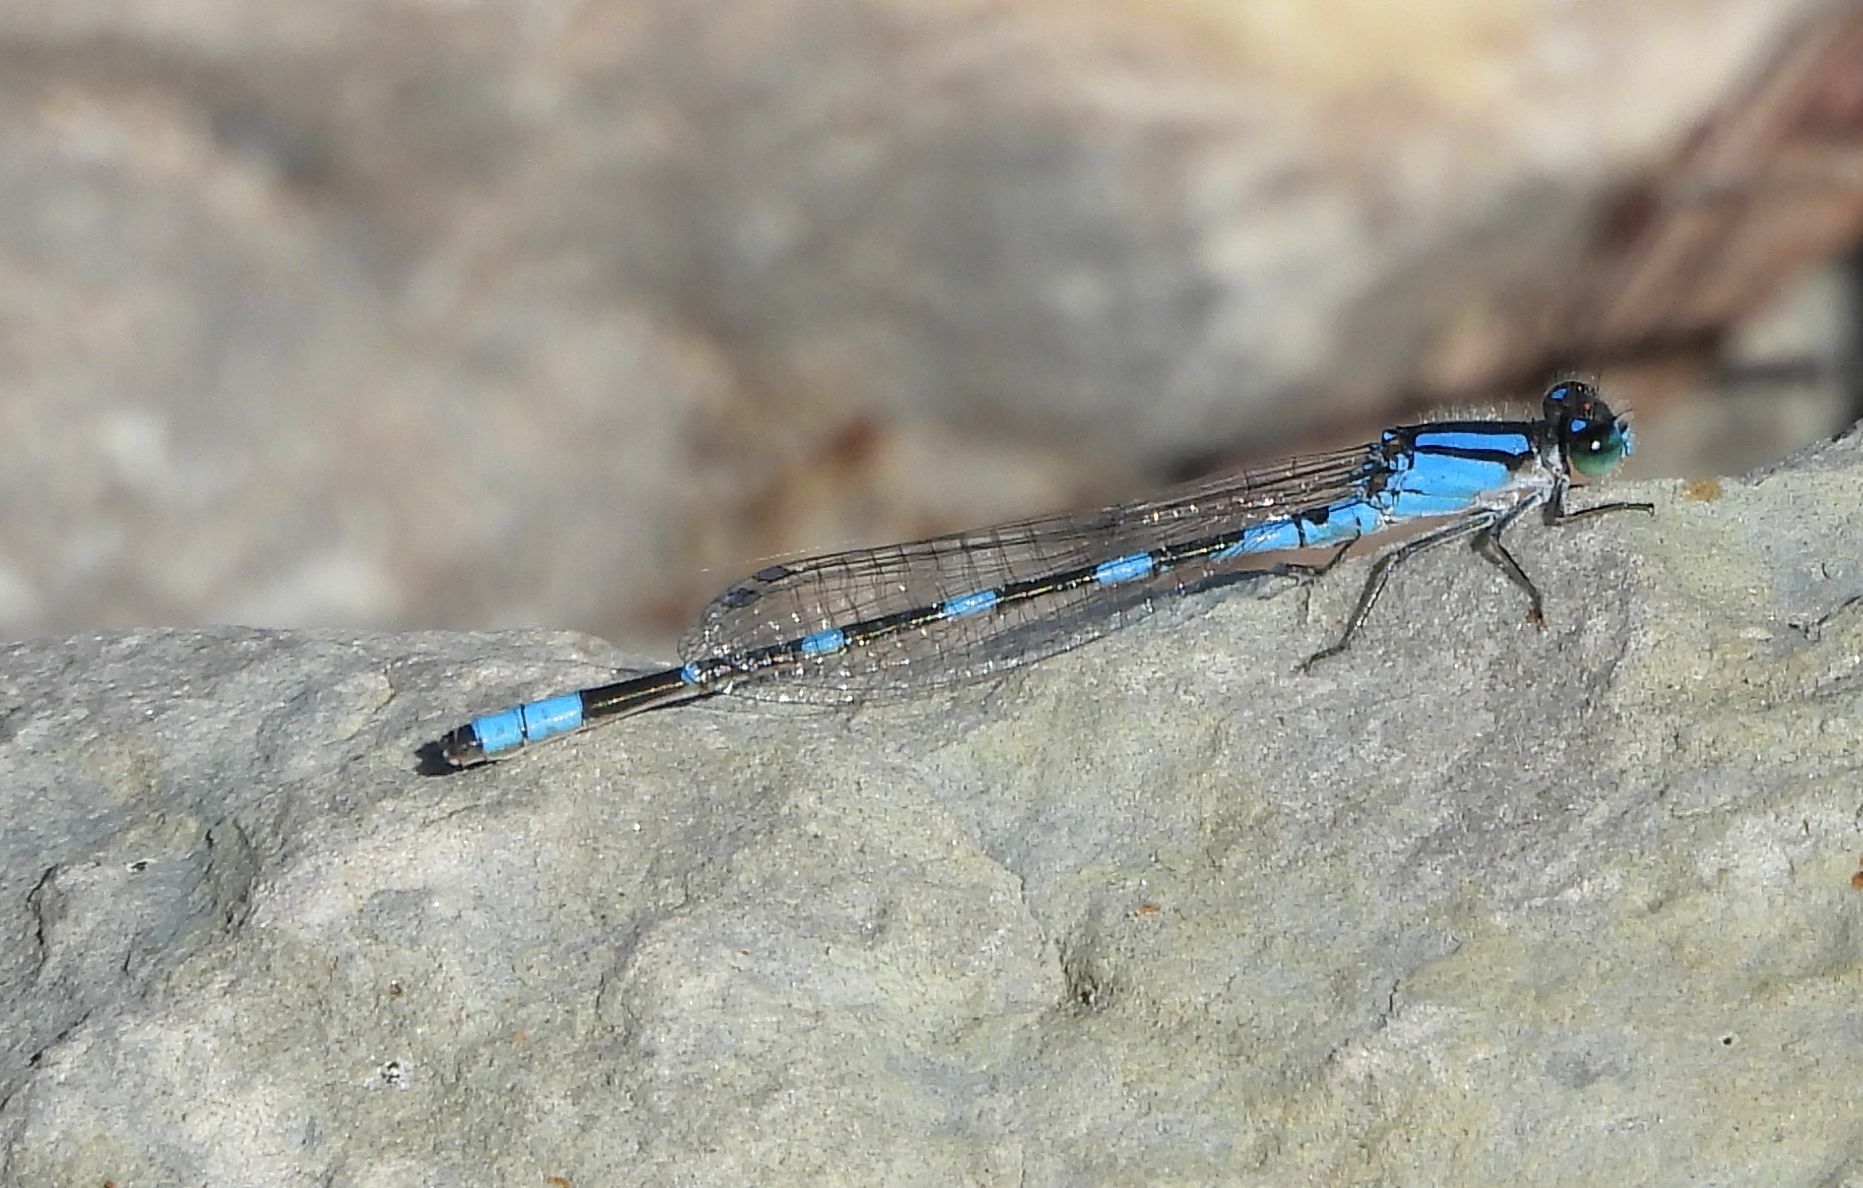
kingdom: Animalia
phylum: Arthropoda
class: Insecta
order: Odonata
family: Coenagrionidae
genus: Enallagma
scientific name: Enallagma carunculatum
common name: Tule bluet
